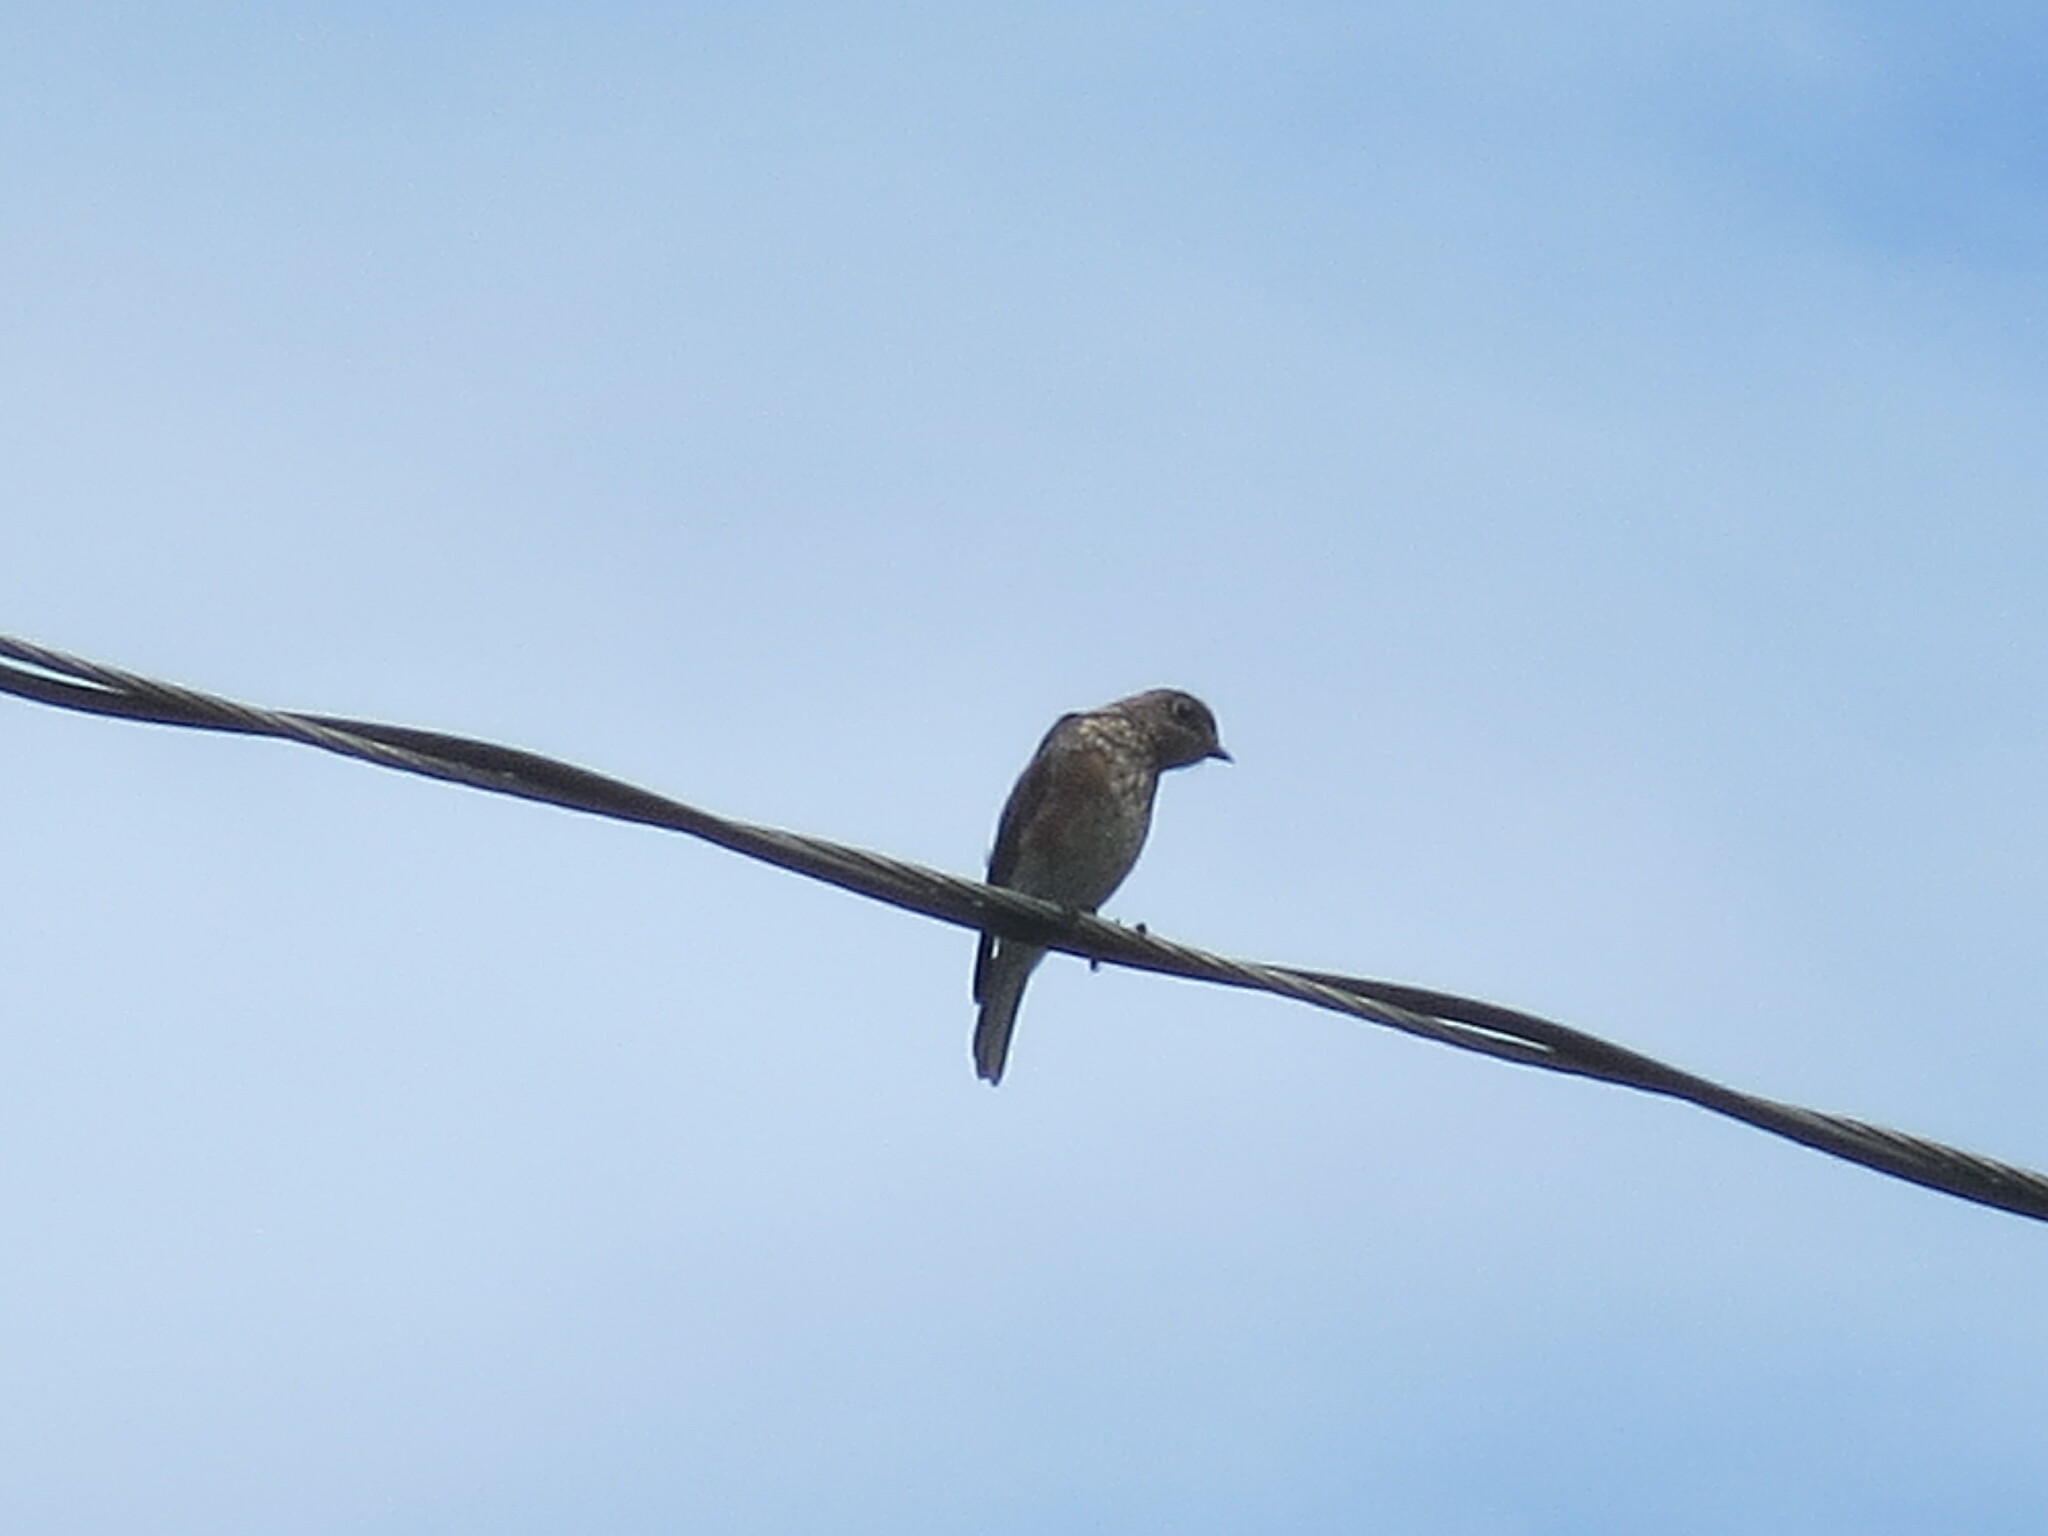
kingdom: Animalia
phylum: Chordata
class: Aves
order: Passeriformes
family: Turdidae
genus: Sialia
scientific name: Sialia sialis
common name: Eastern bluebird
